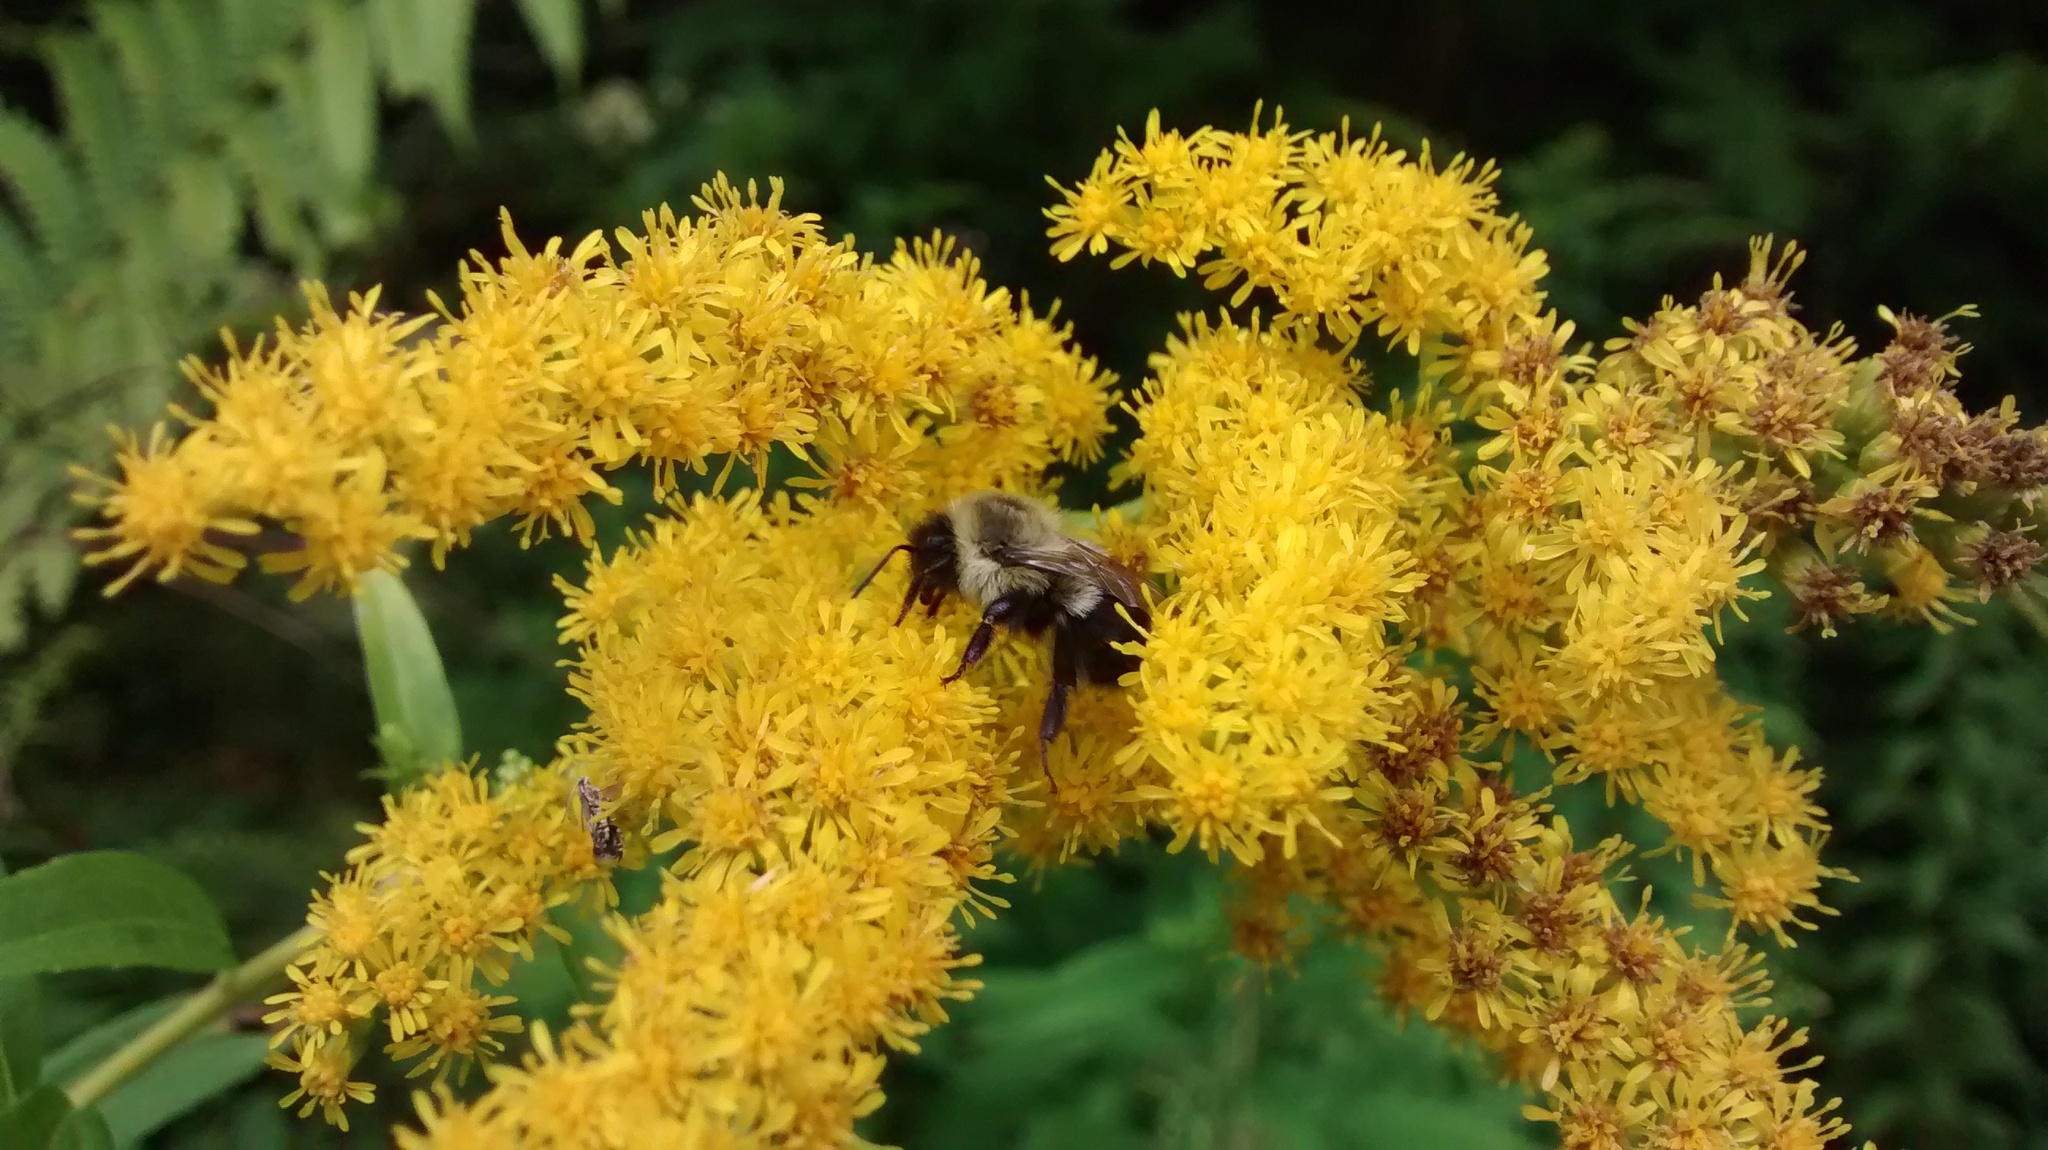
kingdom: Animalia
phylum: Arthropoda
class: Insecta
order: Hymenoptera
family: Apidae
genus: Bombus
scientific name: Bombus impatiens
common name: Common eastern bumble bee
